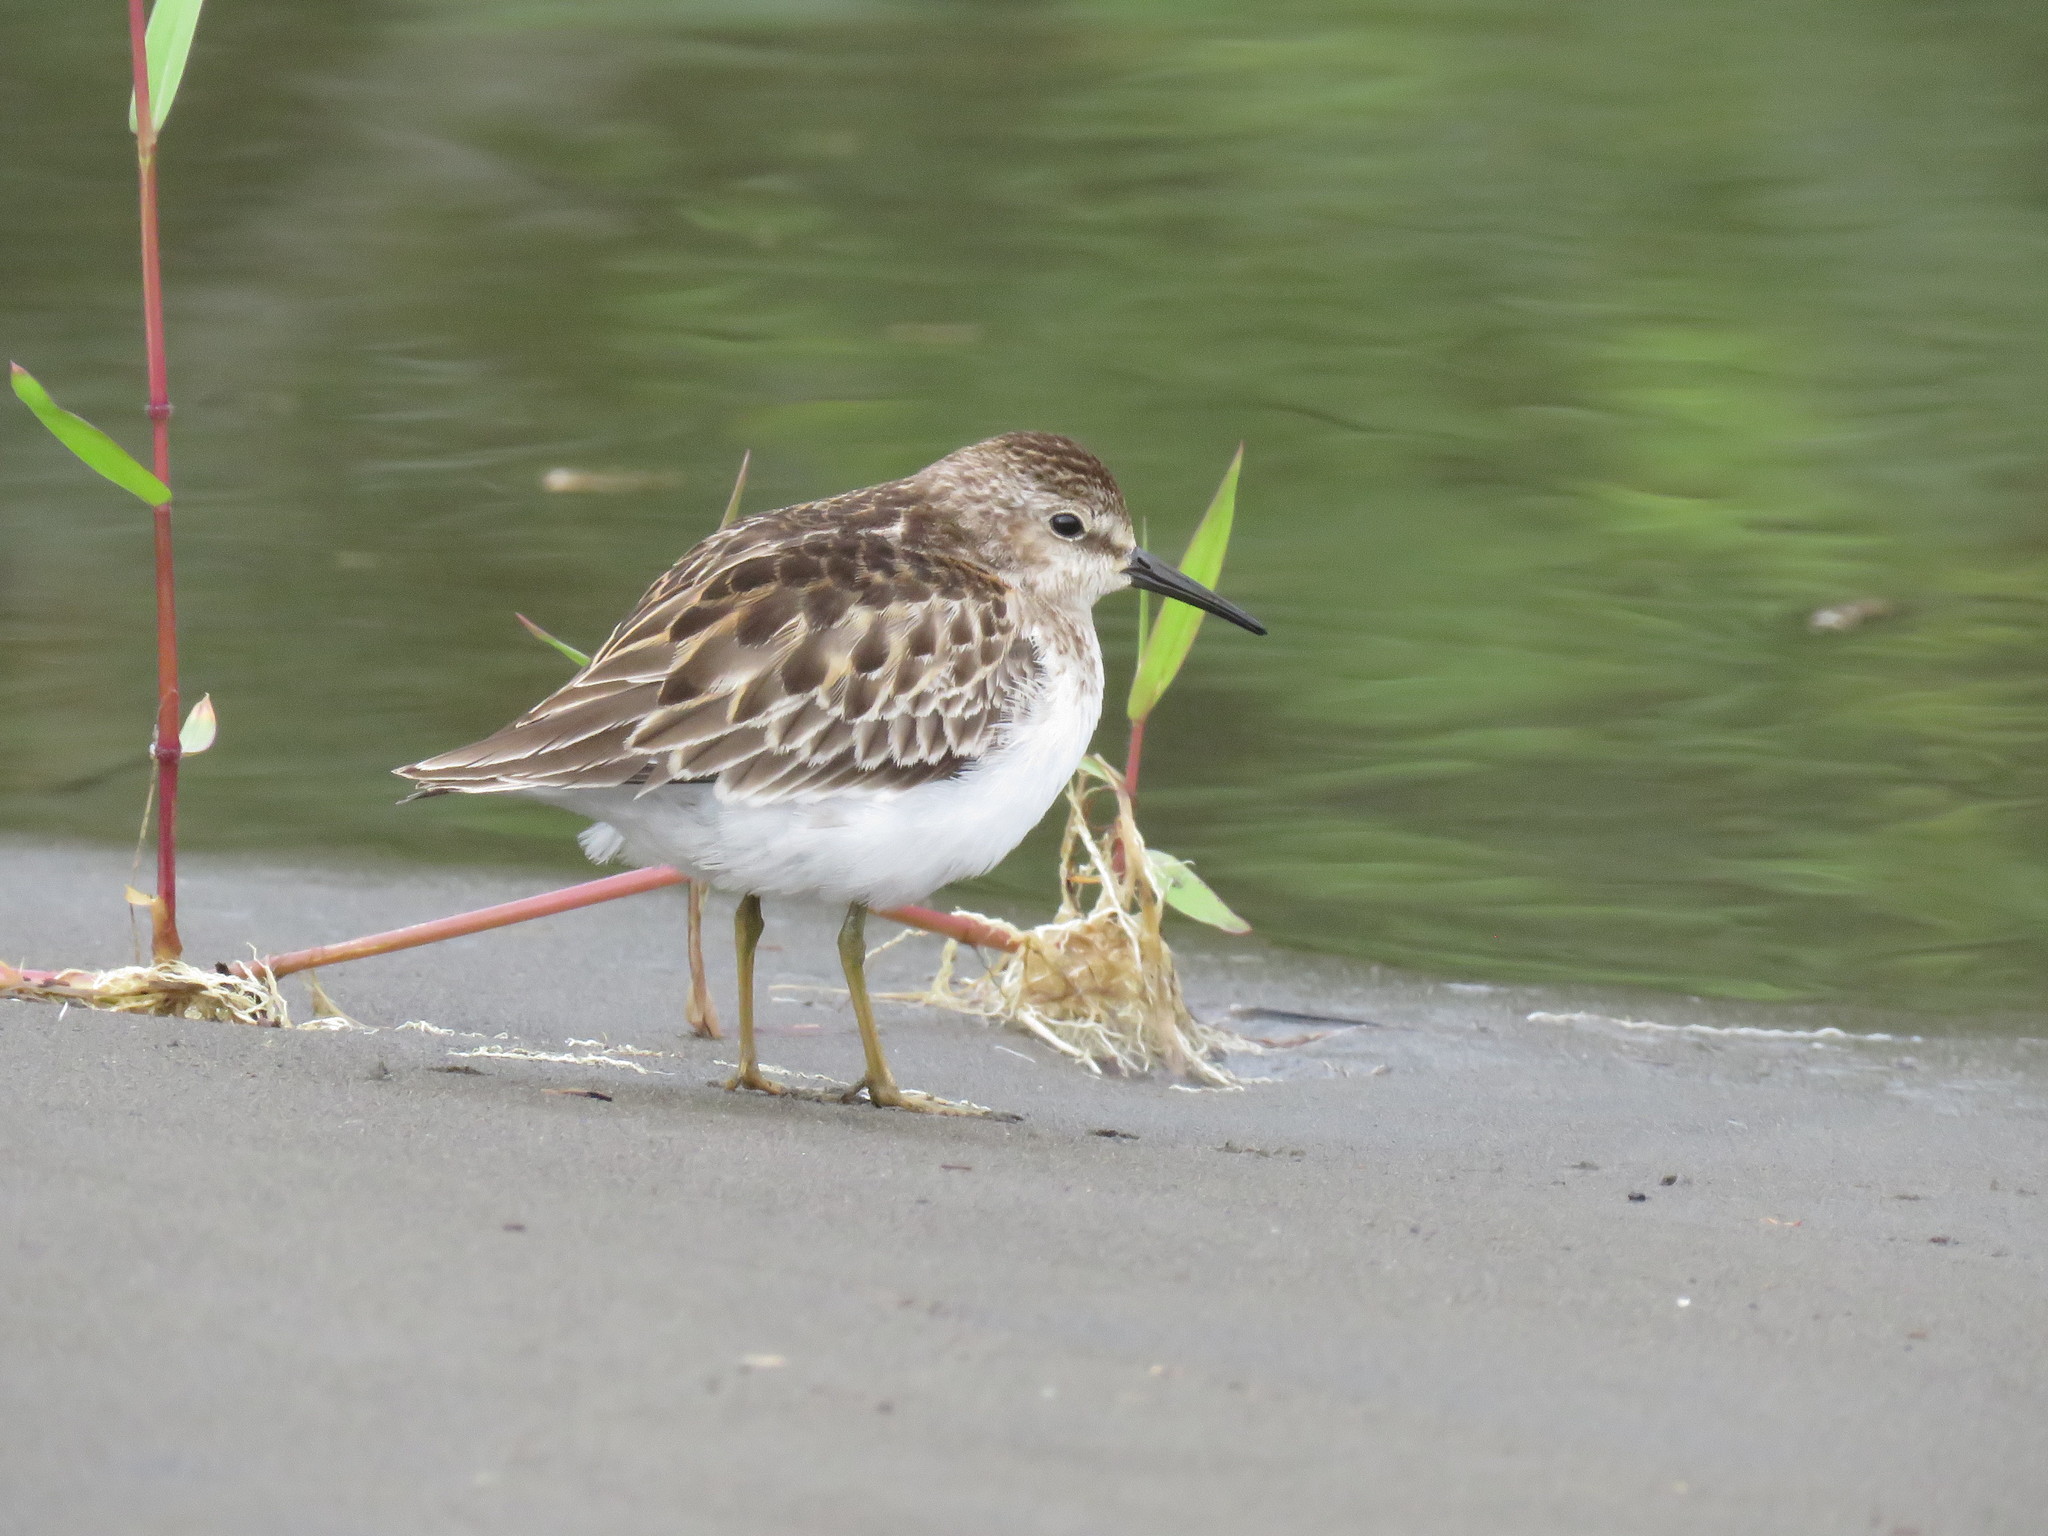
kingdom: Animalia
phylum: Chordata
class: Aves
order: Charadriiformes
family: Scolopacidae
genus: Calidris
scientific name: Calidris minutilla
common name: Least sandpiper
